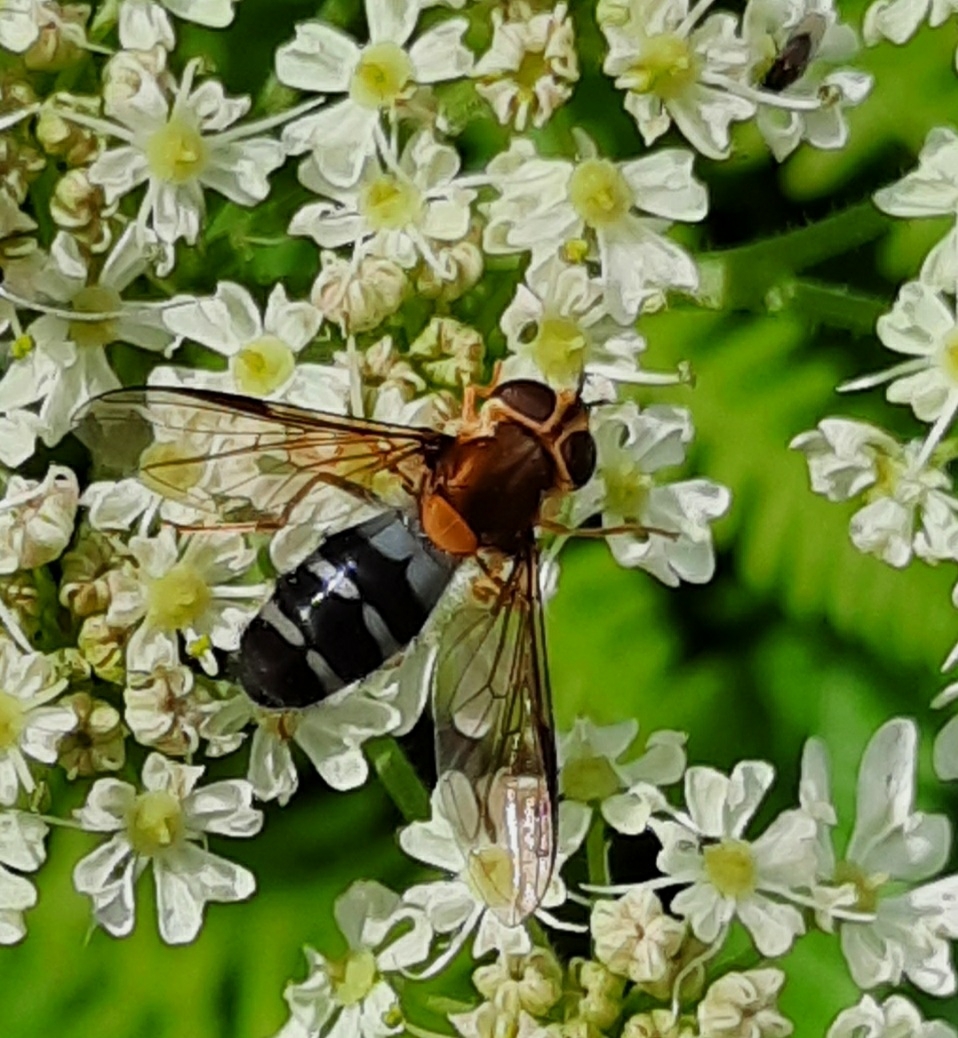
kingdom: Animalia
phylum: Arthropoda
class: Insecta
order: Diptera
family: Syrphidae
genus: Leucozona
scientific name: Leucozona glaucia
